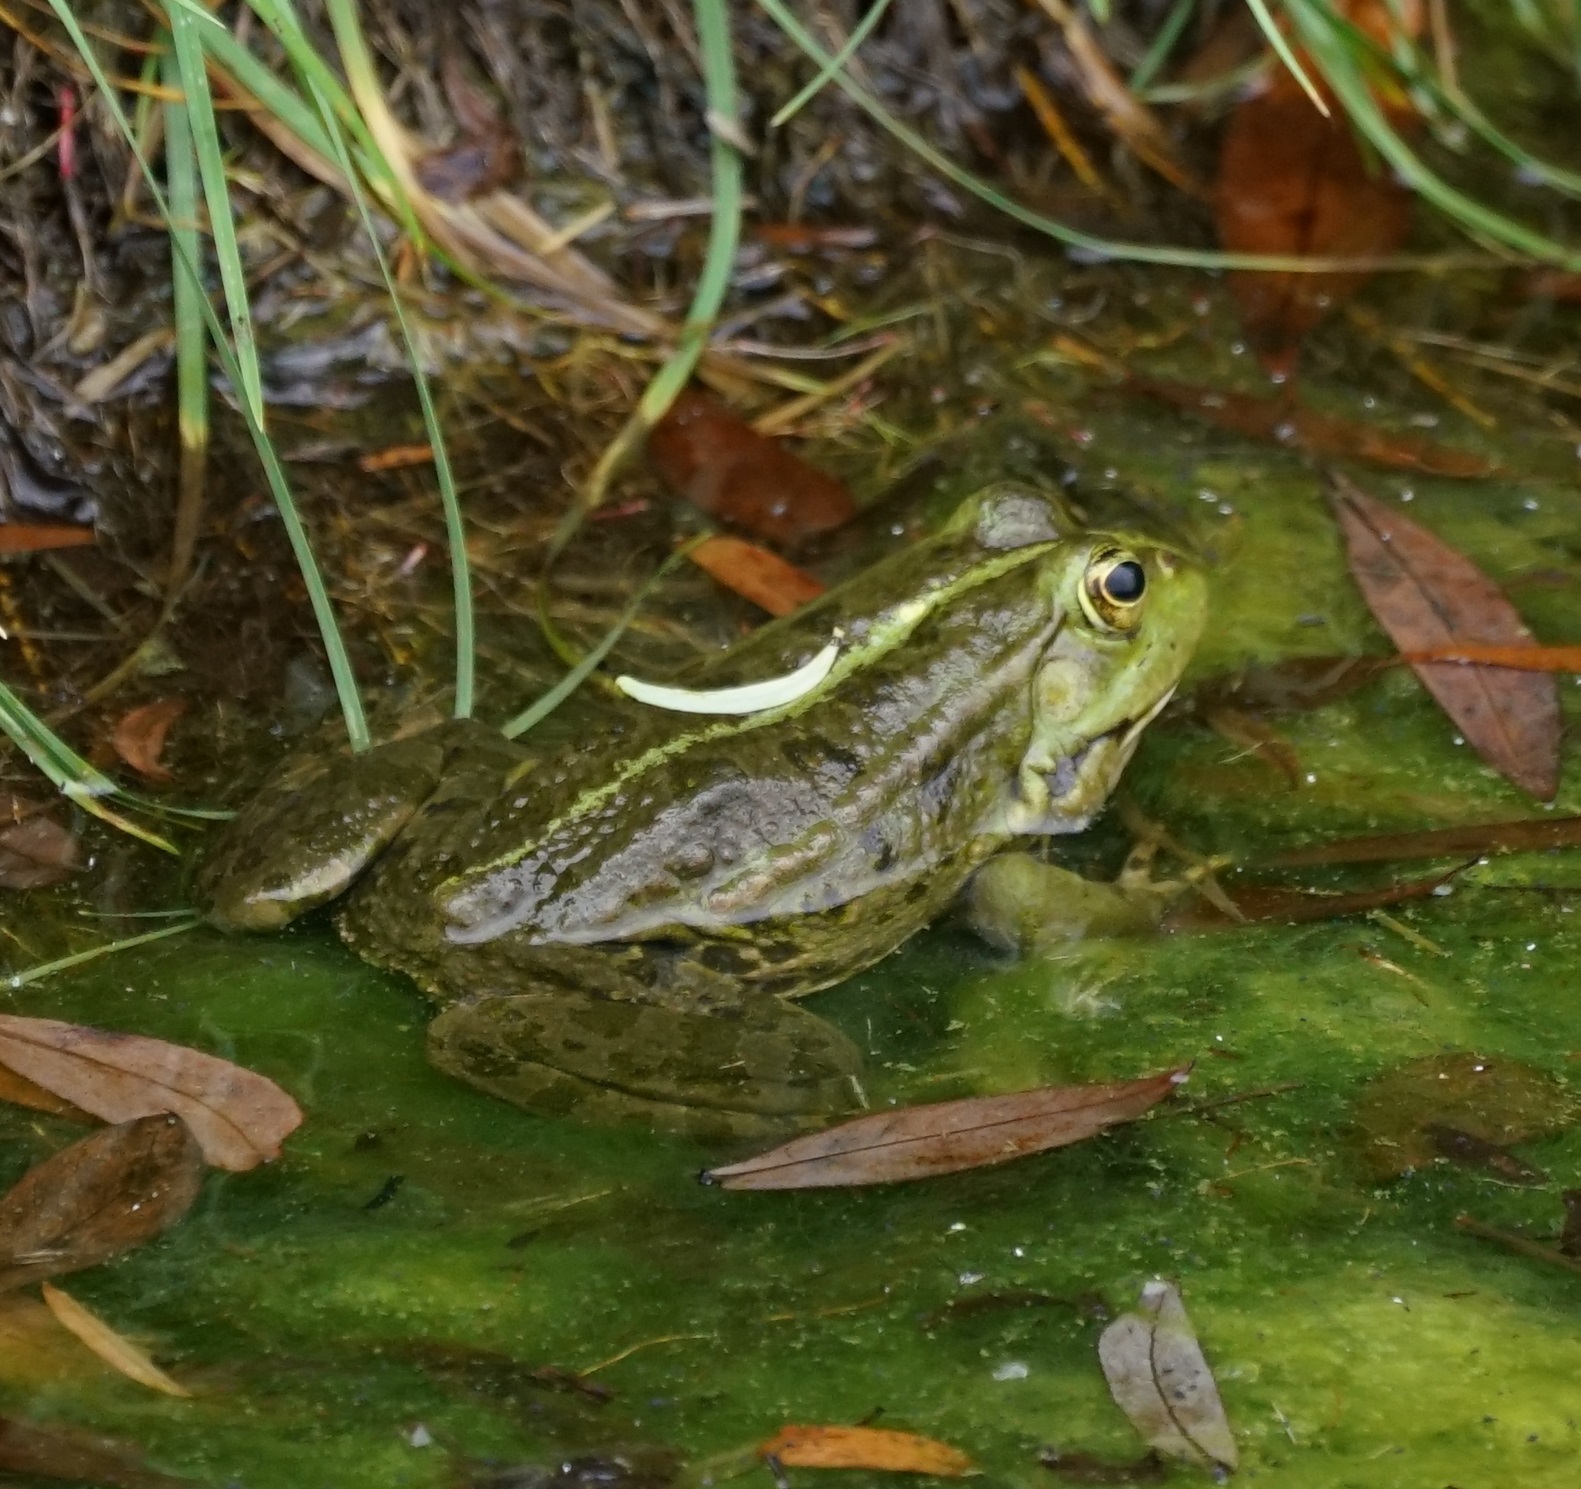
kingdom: Animalia
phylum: Chordata
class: Amphibia
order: Anura
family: Ranidae
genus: Pelophylax
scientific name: Pelophylax
